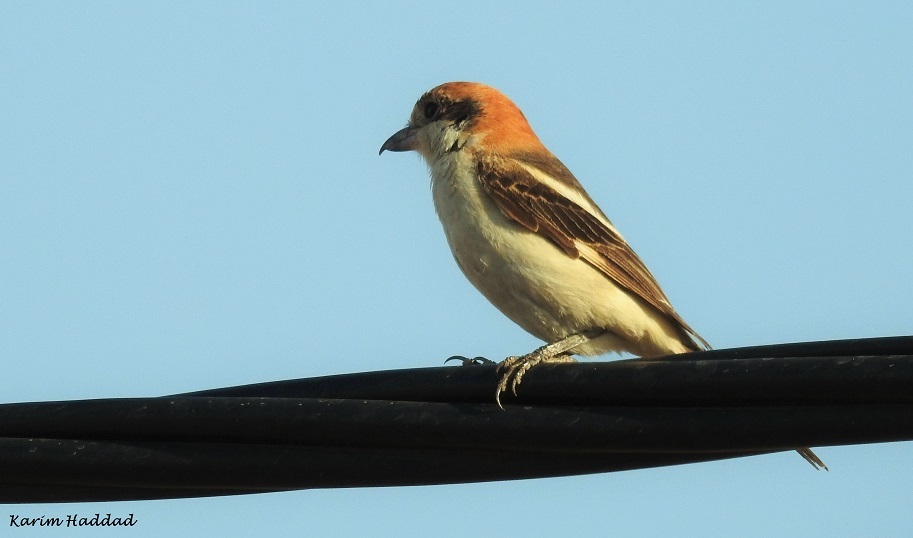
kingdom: Animalia
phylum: Chordata
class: Aves
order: Passeriformes
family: Laniidae
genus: Lanius
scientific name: Lanius senator
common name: Woodchat shrike
